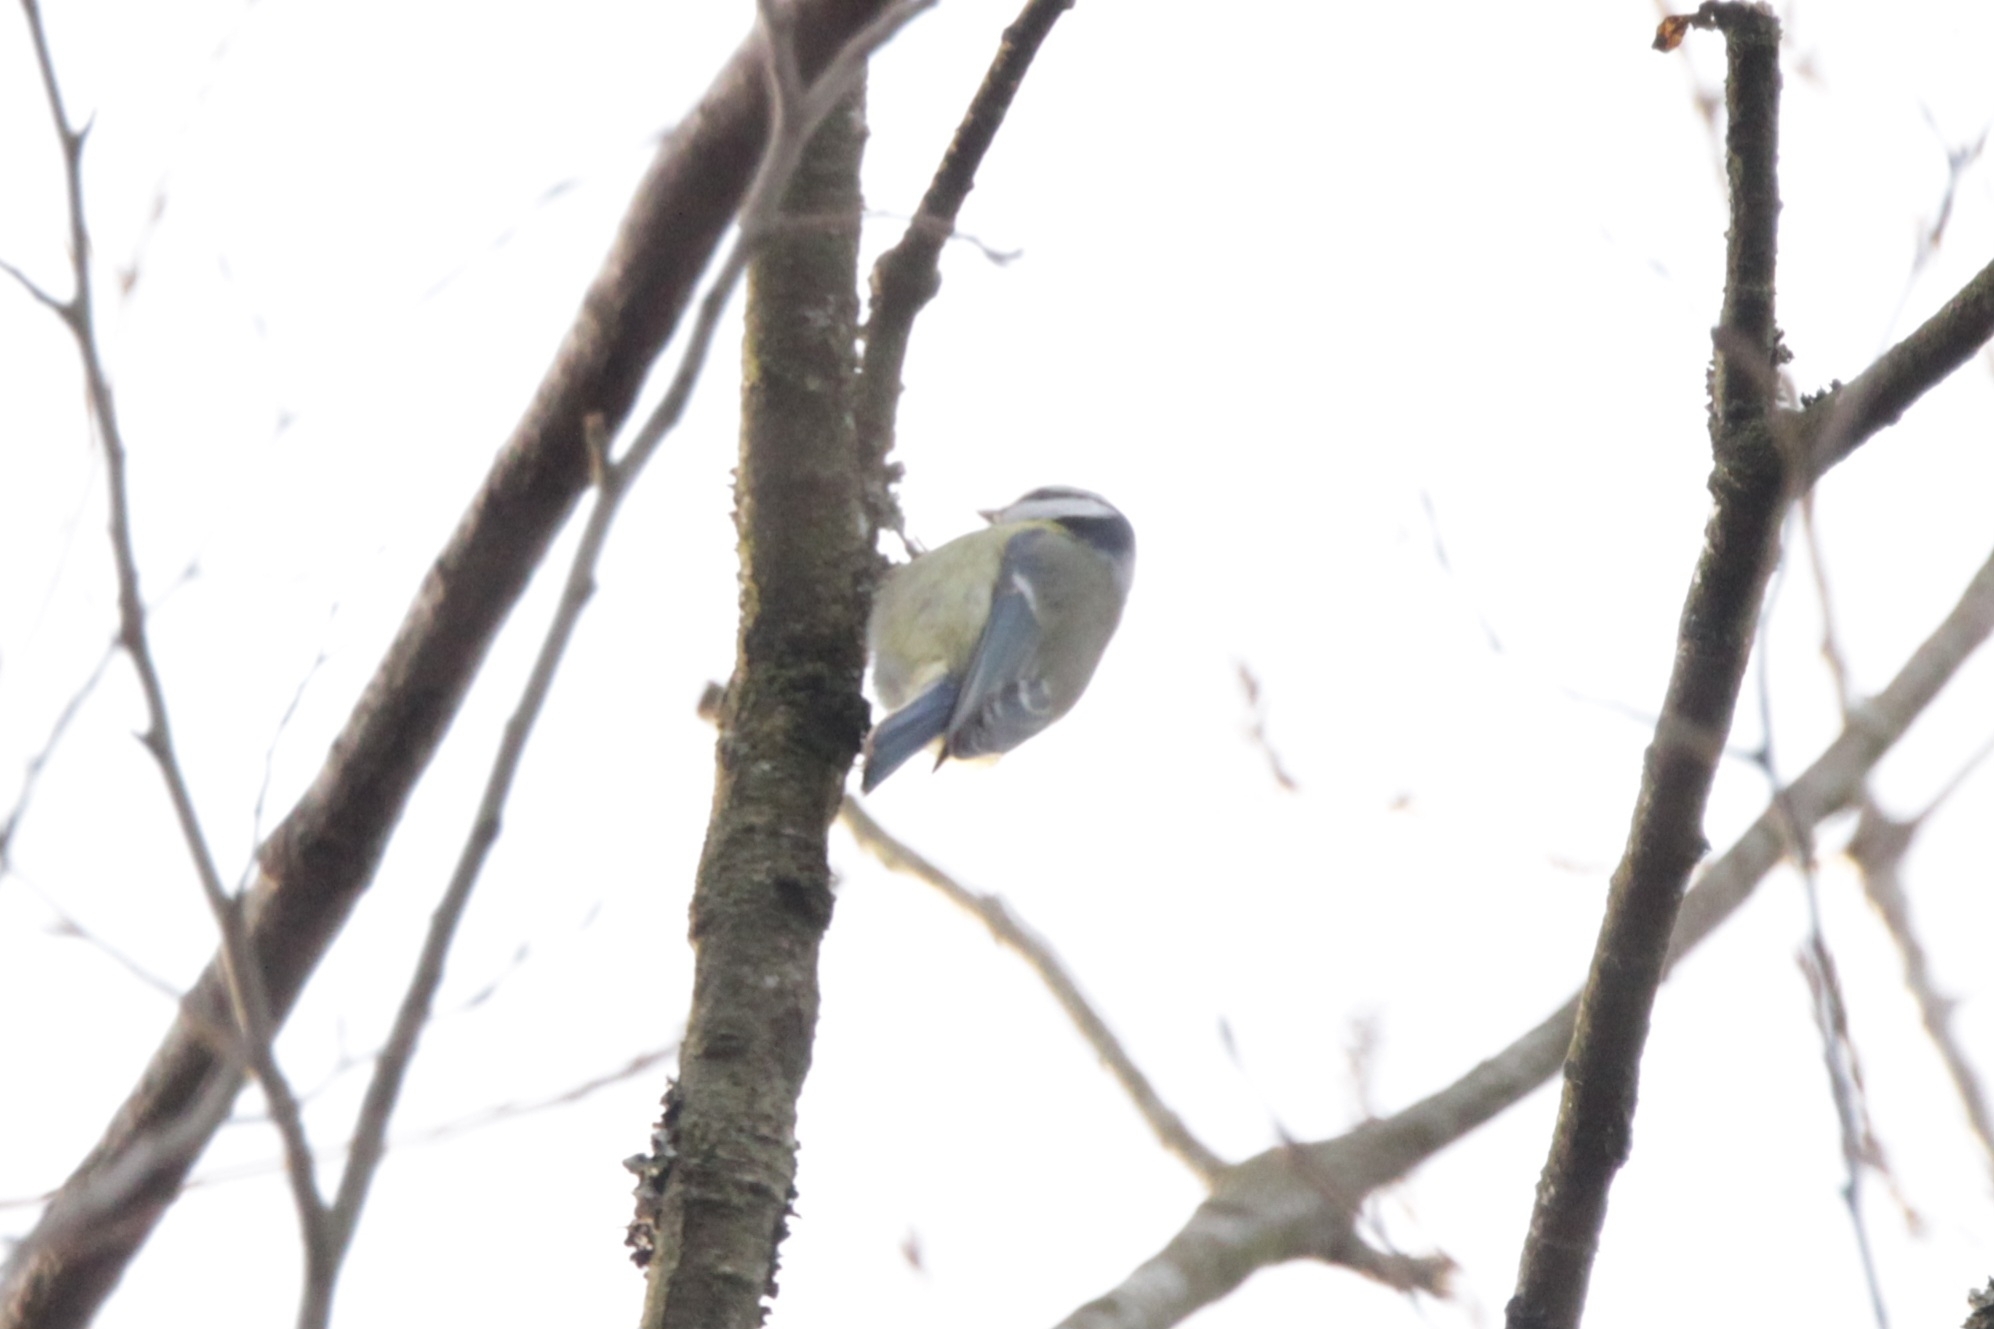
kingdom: Animalia
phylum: Chordata
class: Aves
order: Passeriformes
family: Paridae
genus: Cyanistes
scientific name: Cyanistes caeruleus
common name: Eurasian blue tit
